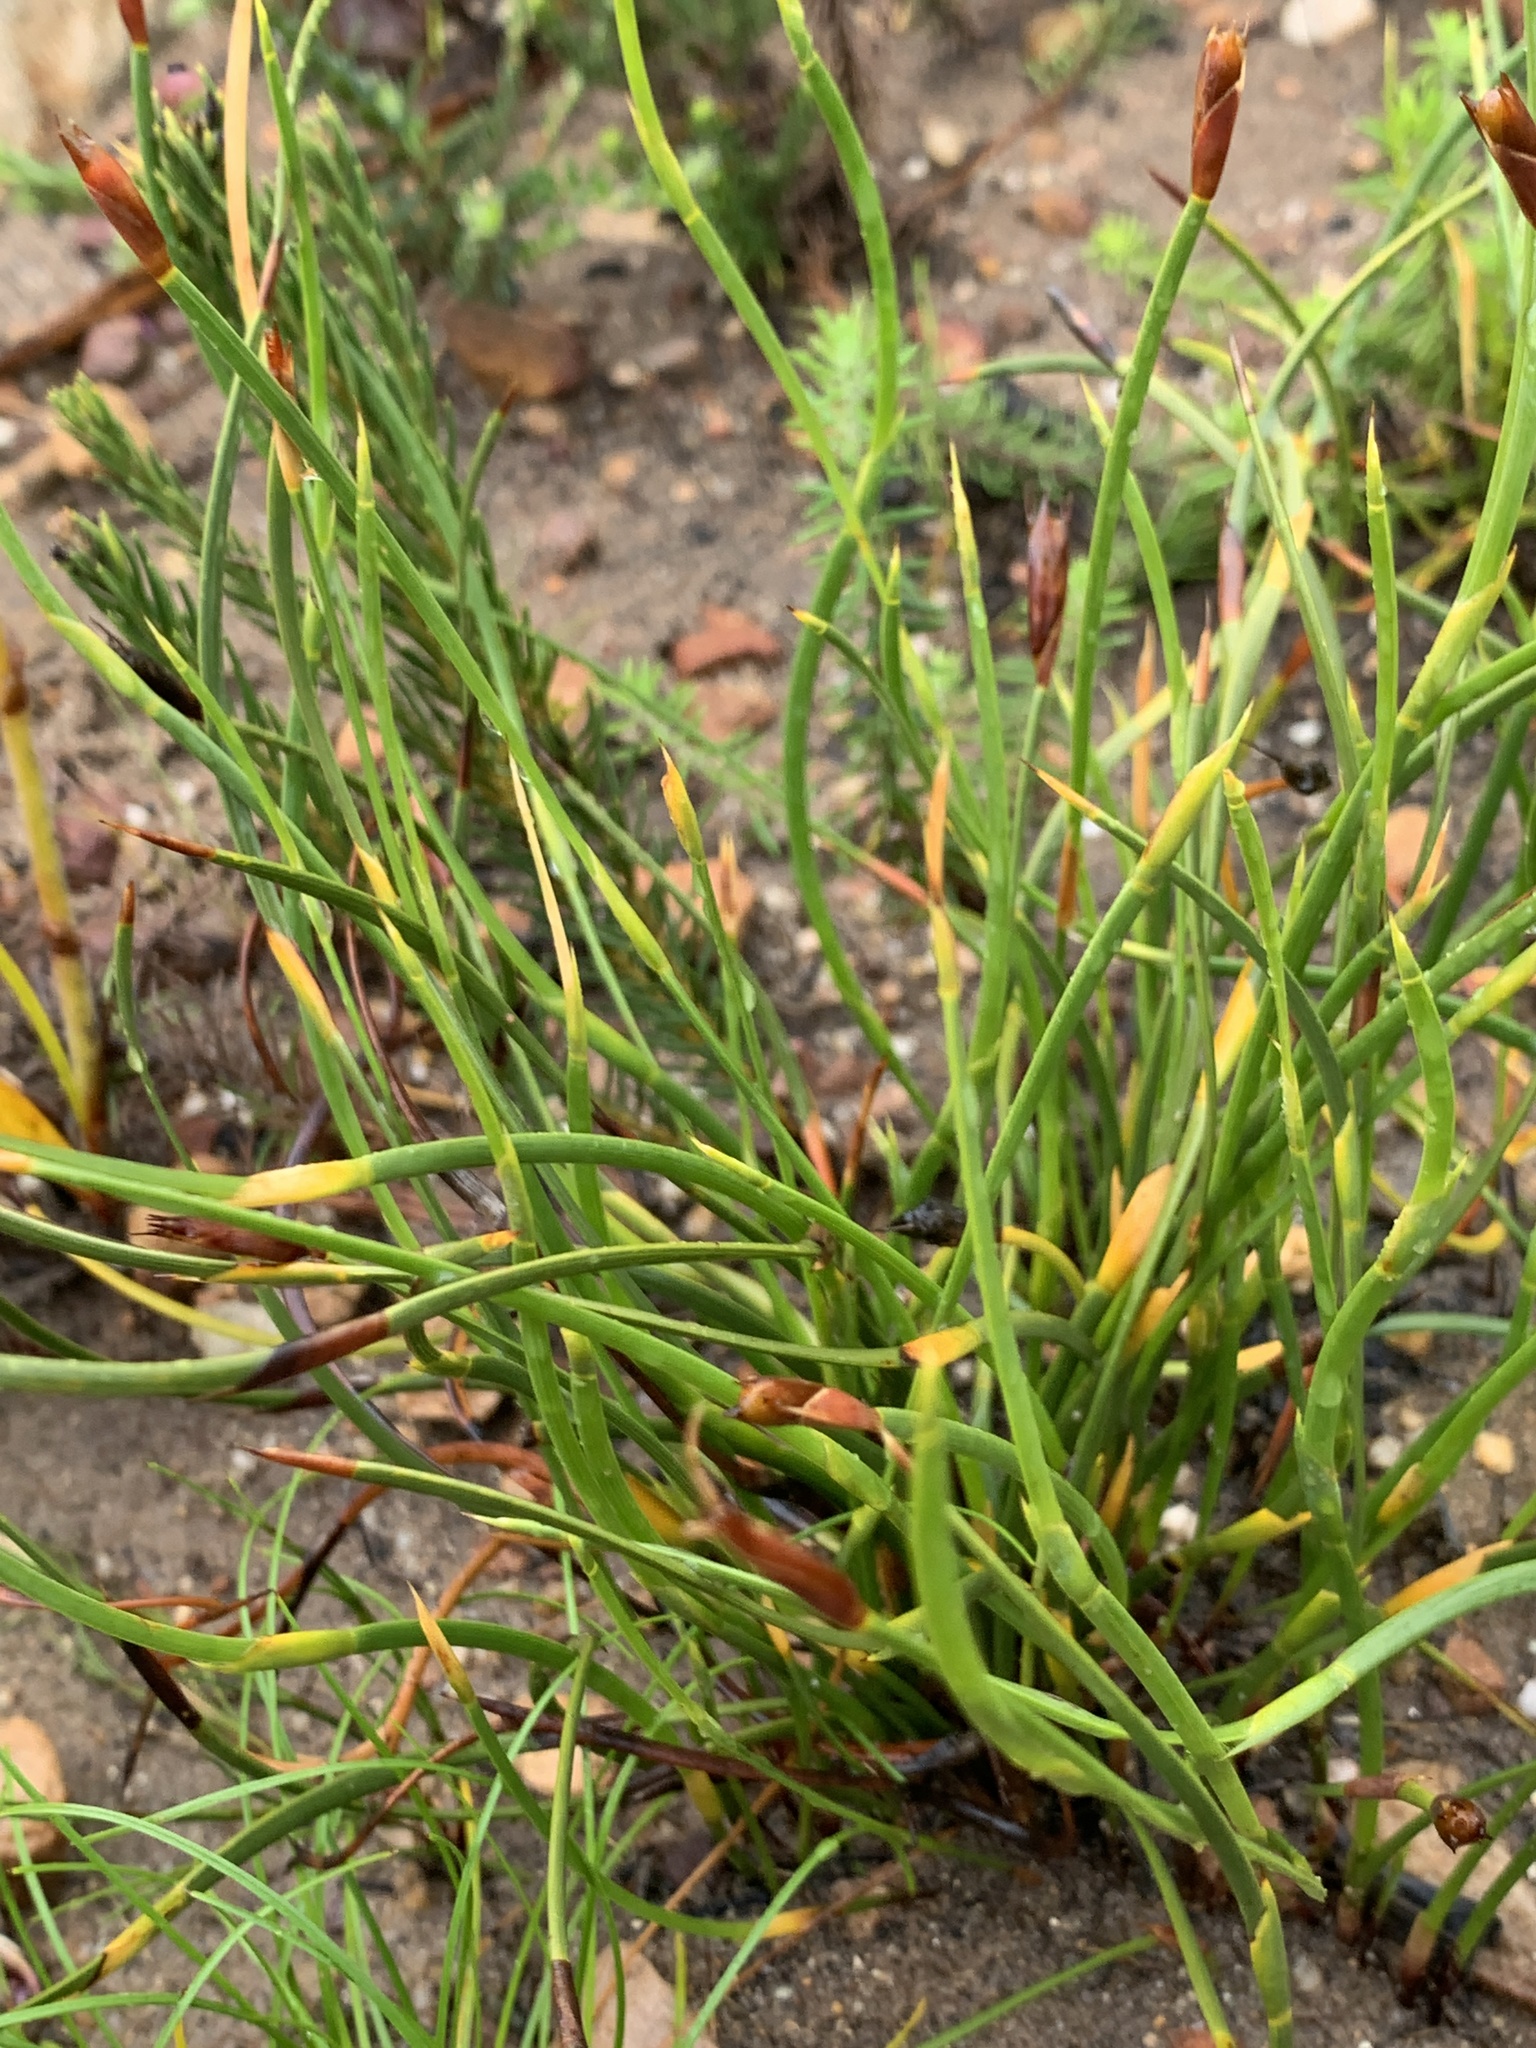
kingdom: Plantae
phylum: Tracheophyta
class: Liliopsida
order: Poales
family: Restionaceae
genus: Hypodiscus
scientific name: Hypodiscus willdenowia
